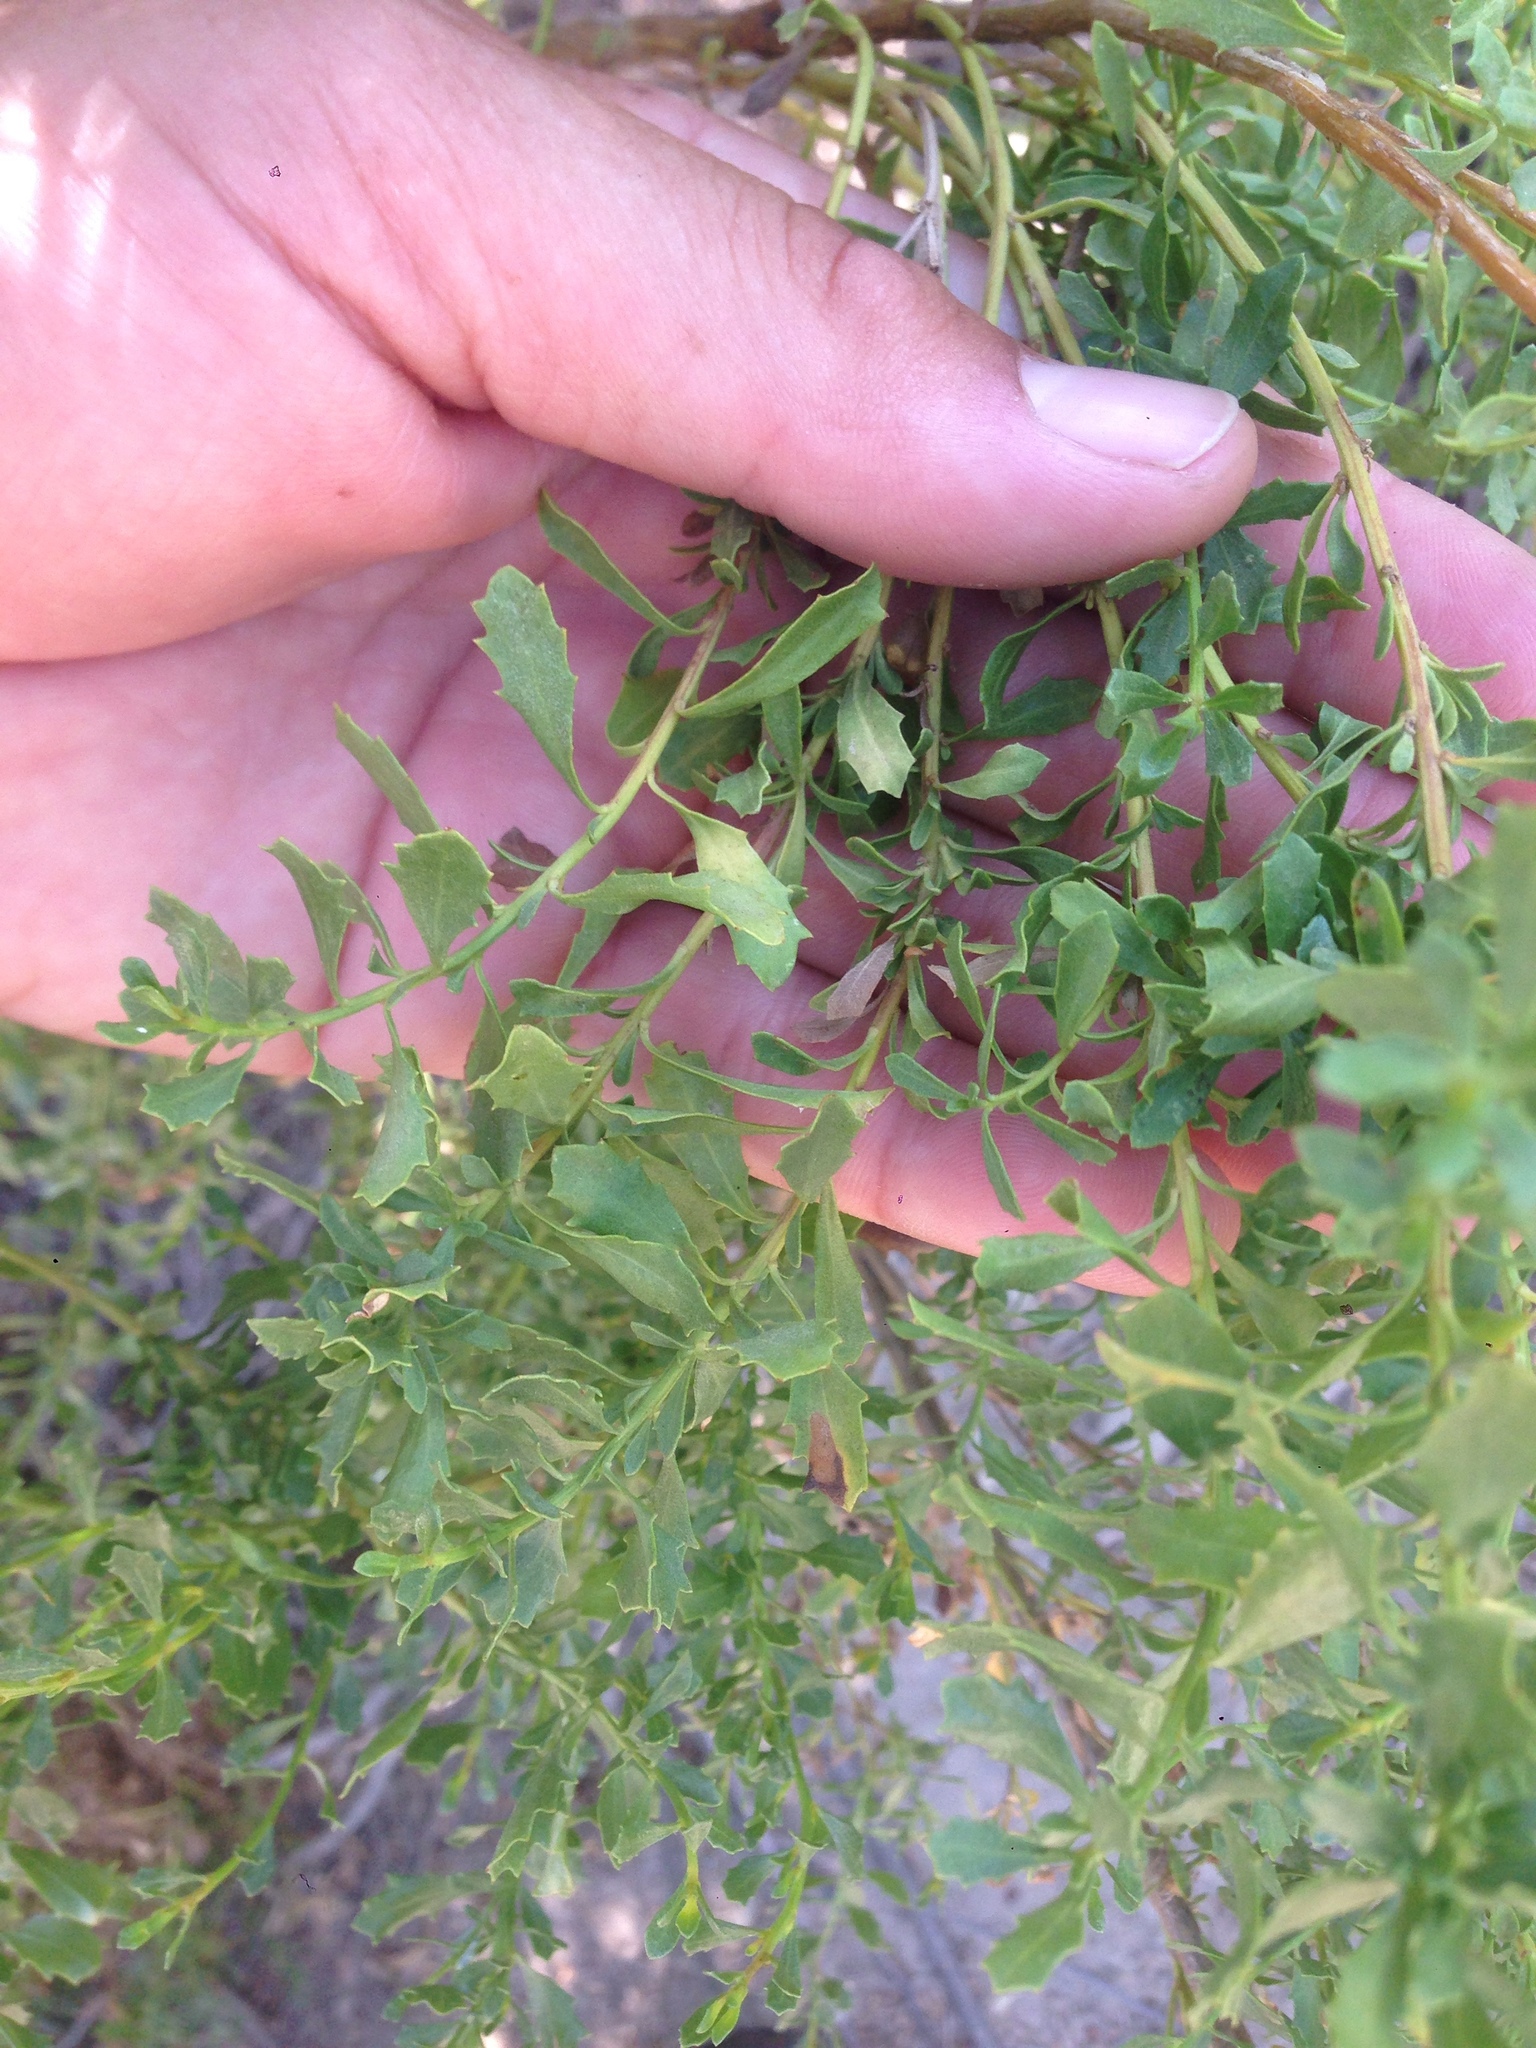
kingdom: Plantae
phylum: Tracheophyta
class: Magnoliopsida
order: Asterales
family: Asteraceae
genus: Baccharis
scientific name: Baccharis pilularis
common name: Coyotebrush
